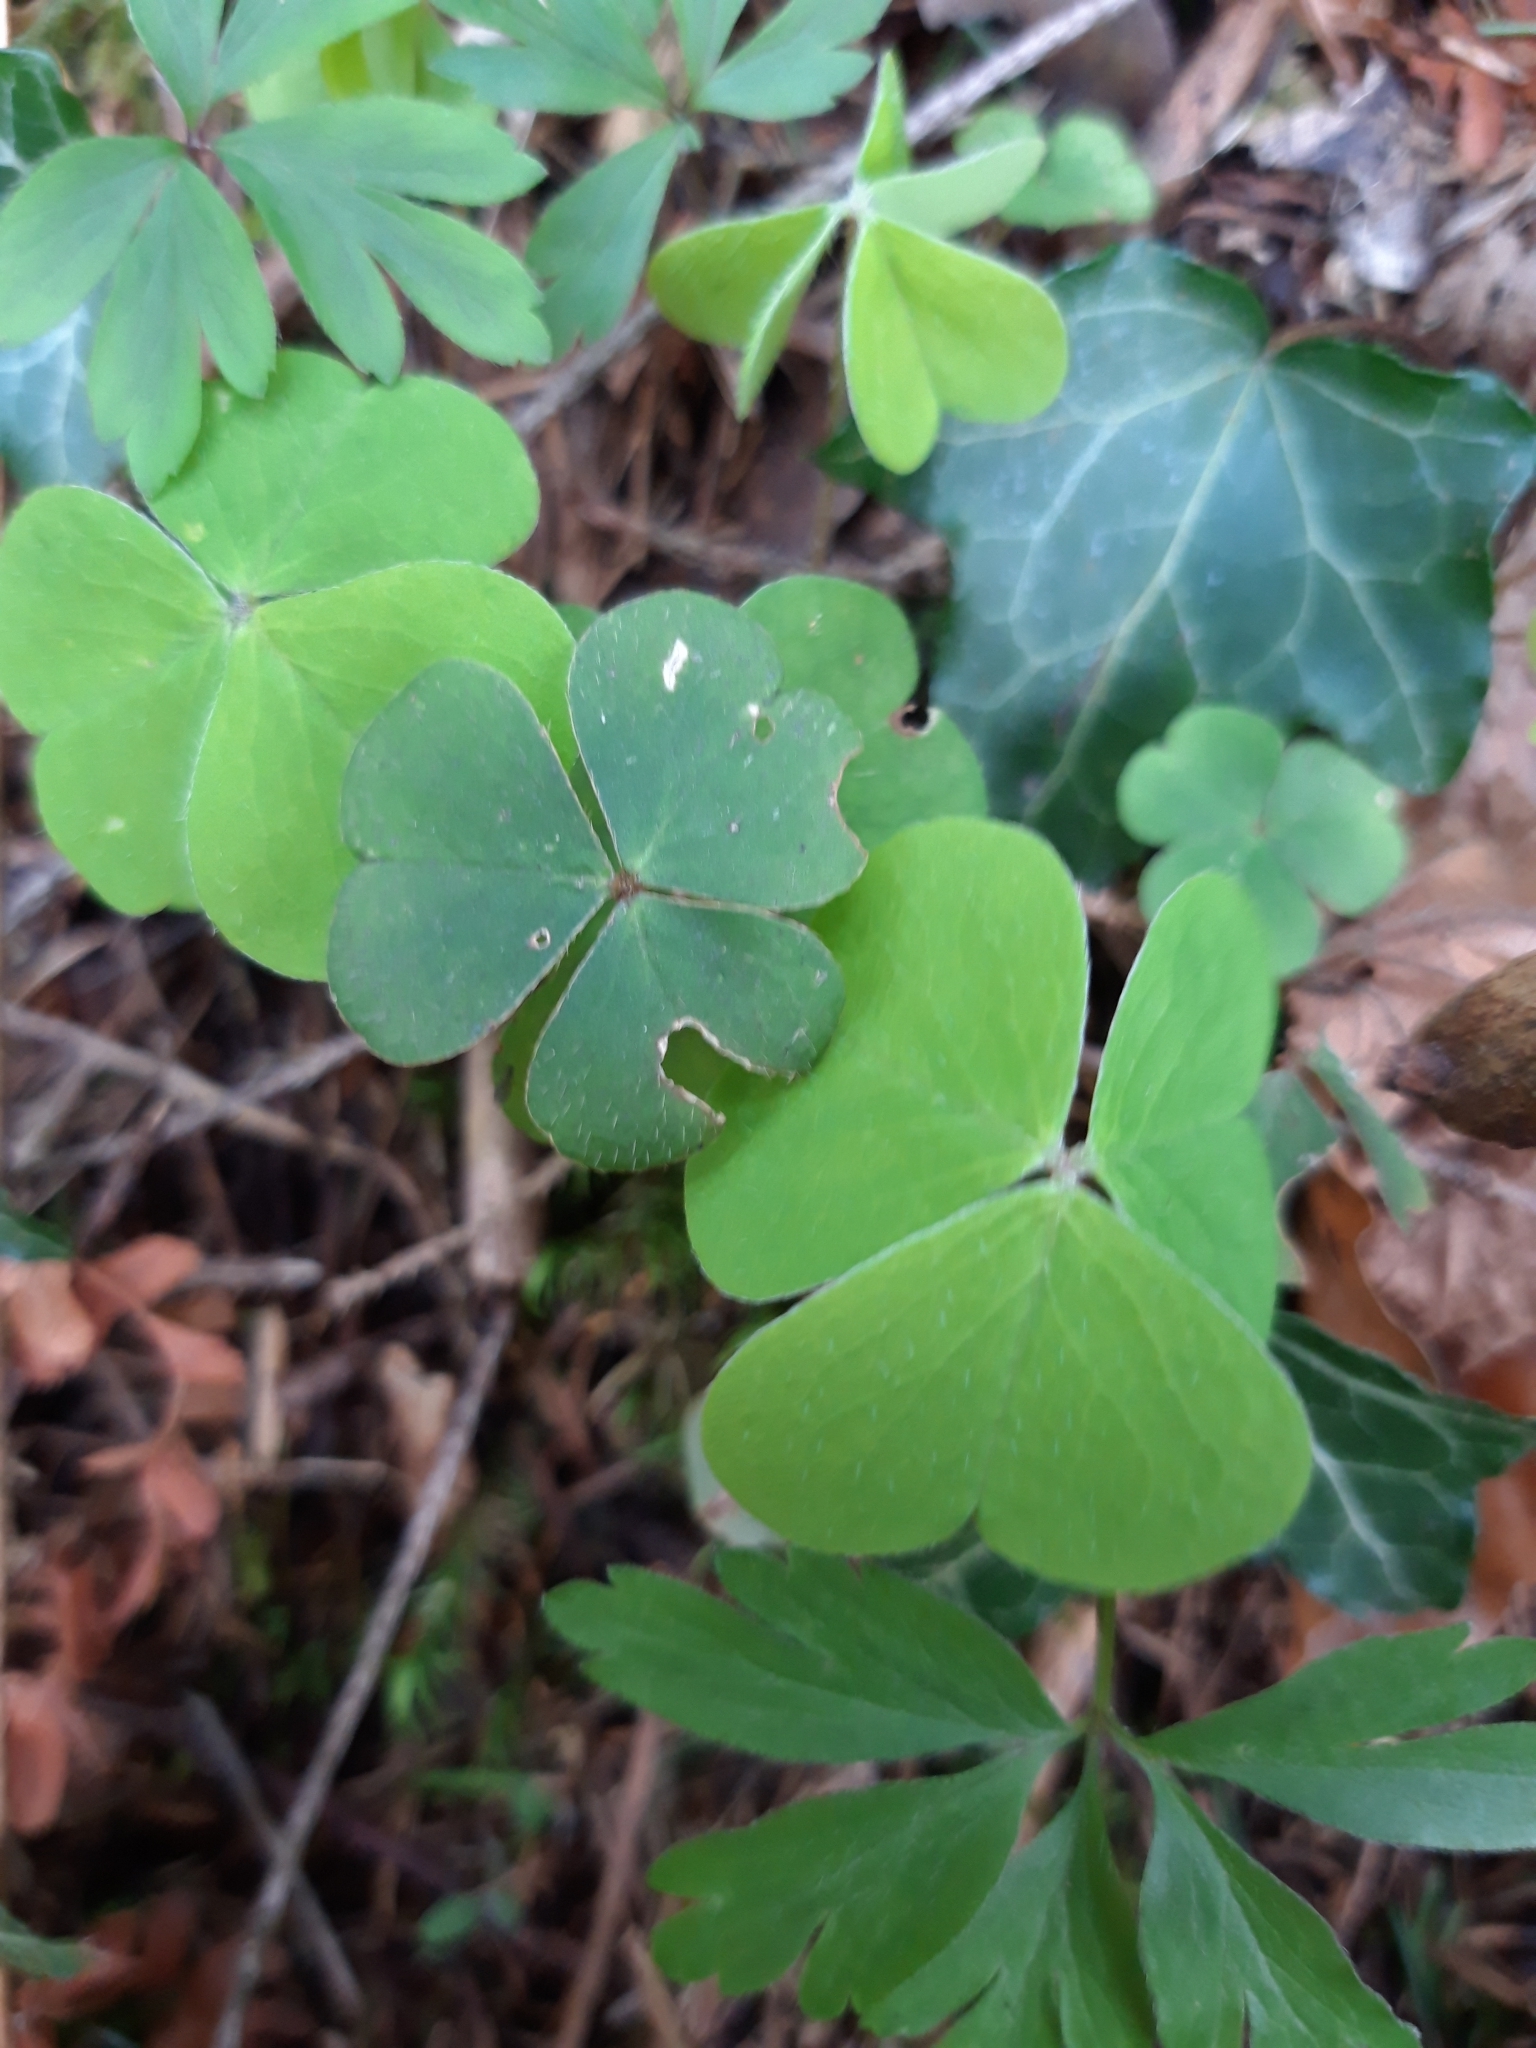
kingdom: Plantae
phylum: Tracheophyta
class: Magnoliopsida
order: Oxalidales
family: Oxalidaceae
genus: Oxalis
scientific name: Oxalis acetosella
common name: Wood-sorrel
